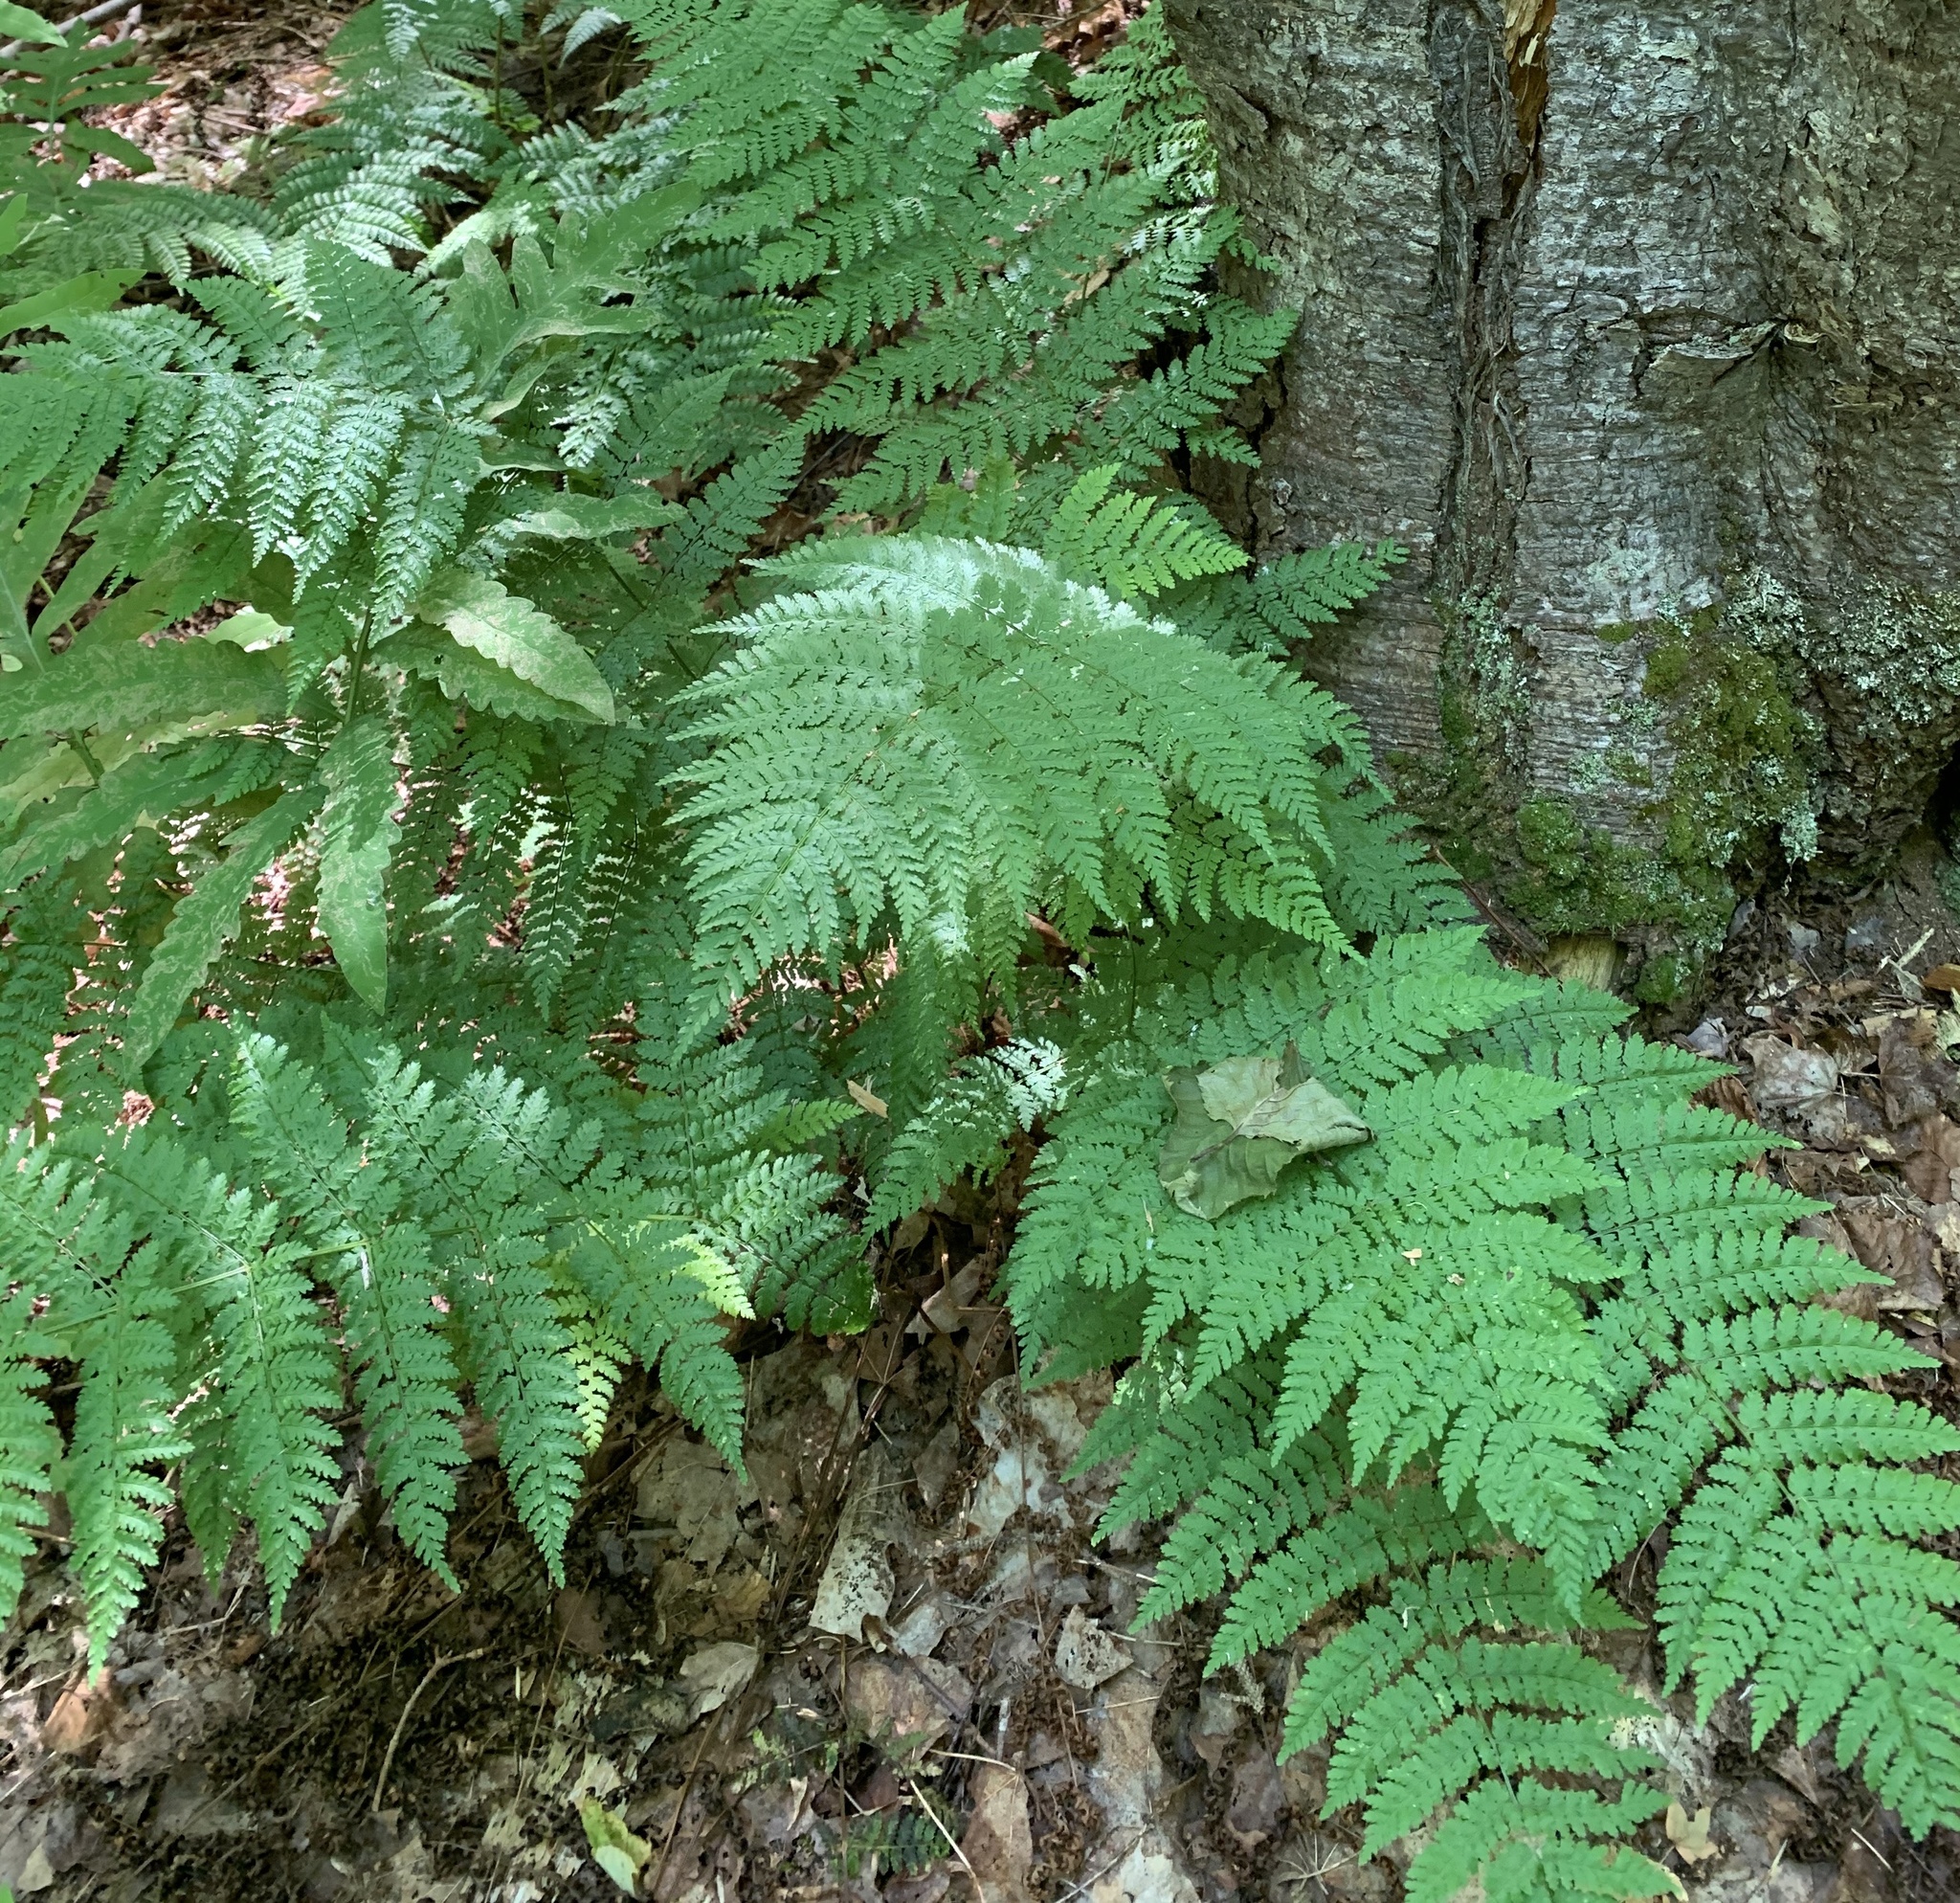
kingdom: Plantae
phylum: Tracheophyta
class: Polypodiopsida
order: Polypodiales
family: Dryopteridaceae
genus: Dryopteris
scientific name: Dryopteris intermedia
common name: Evergreen wood fern
